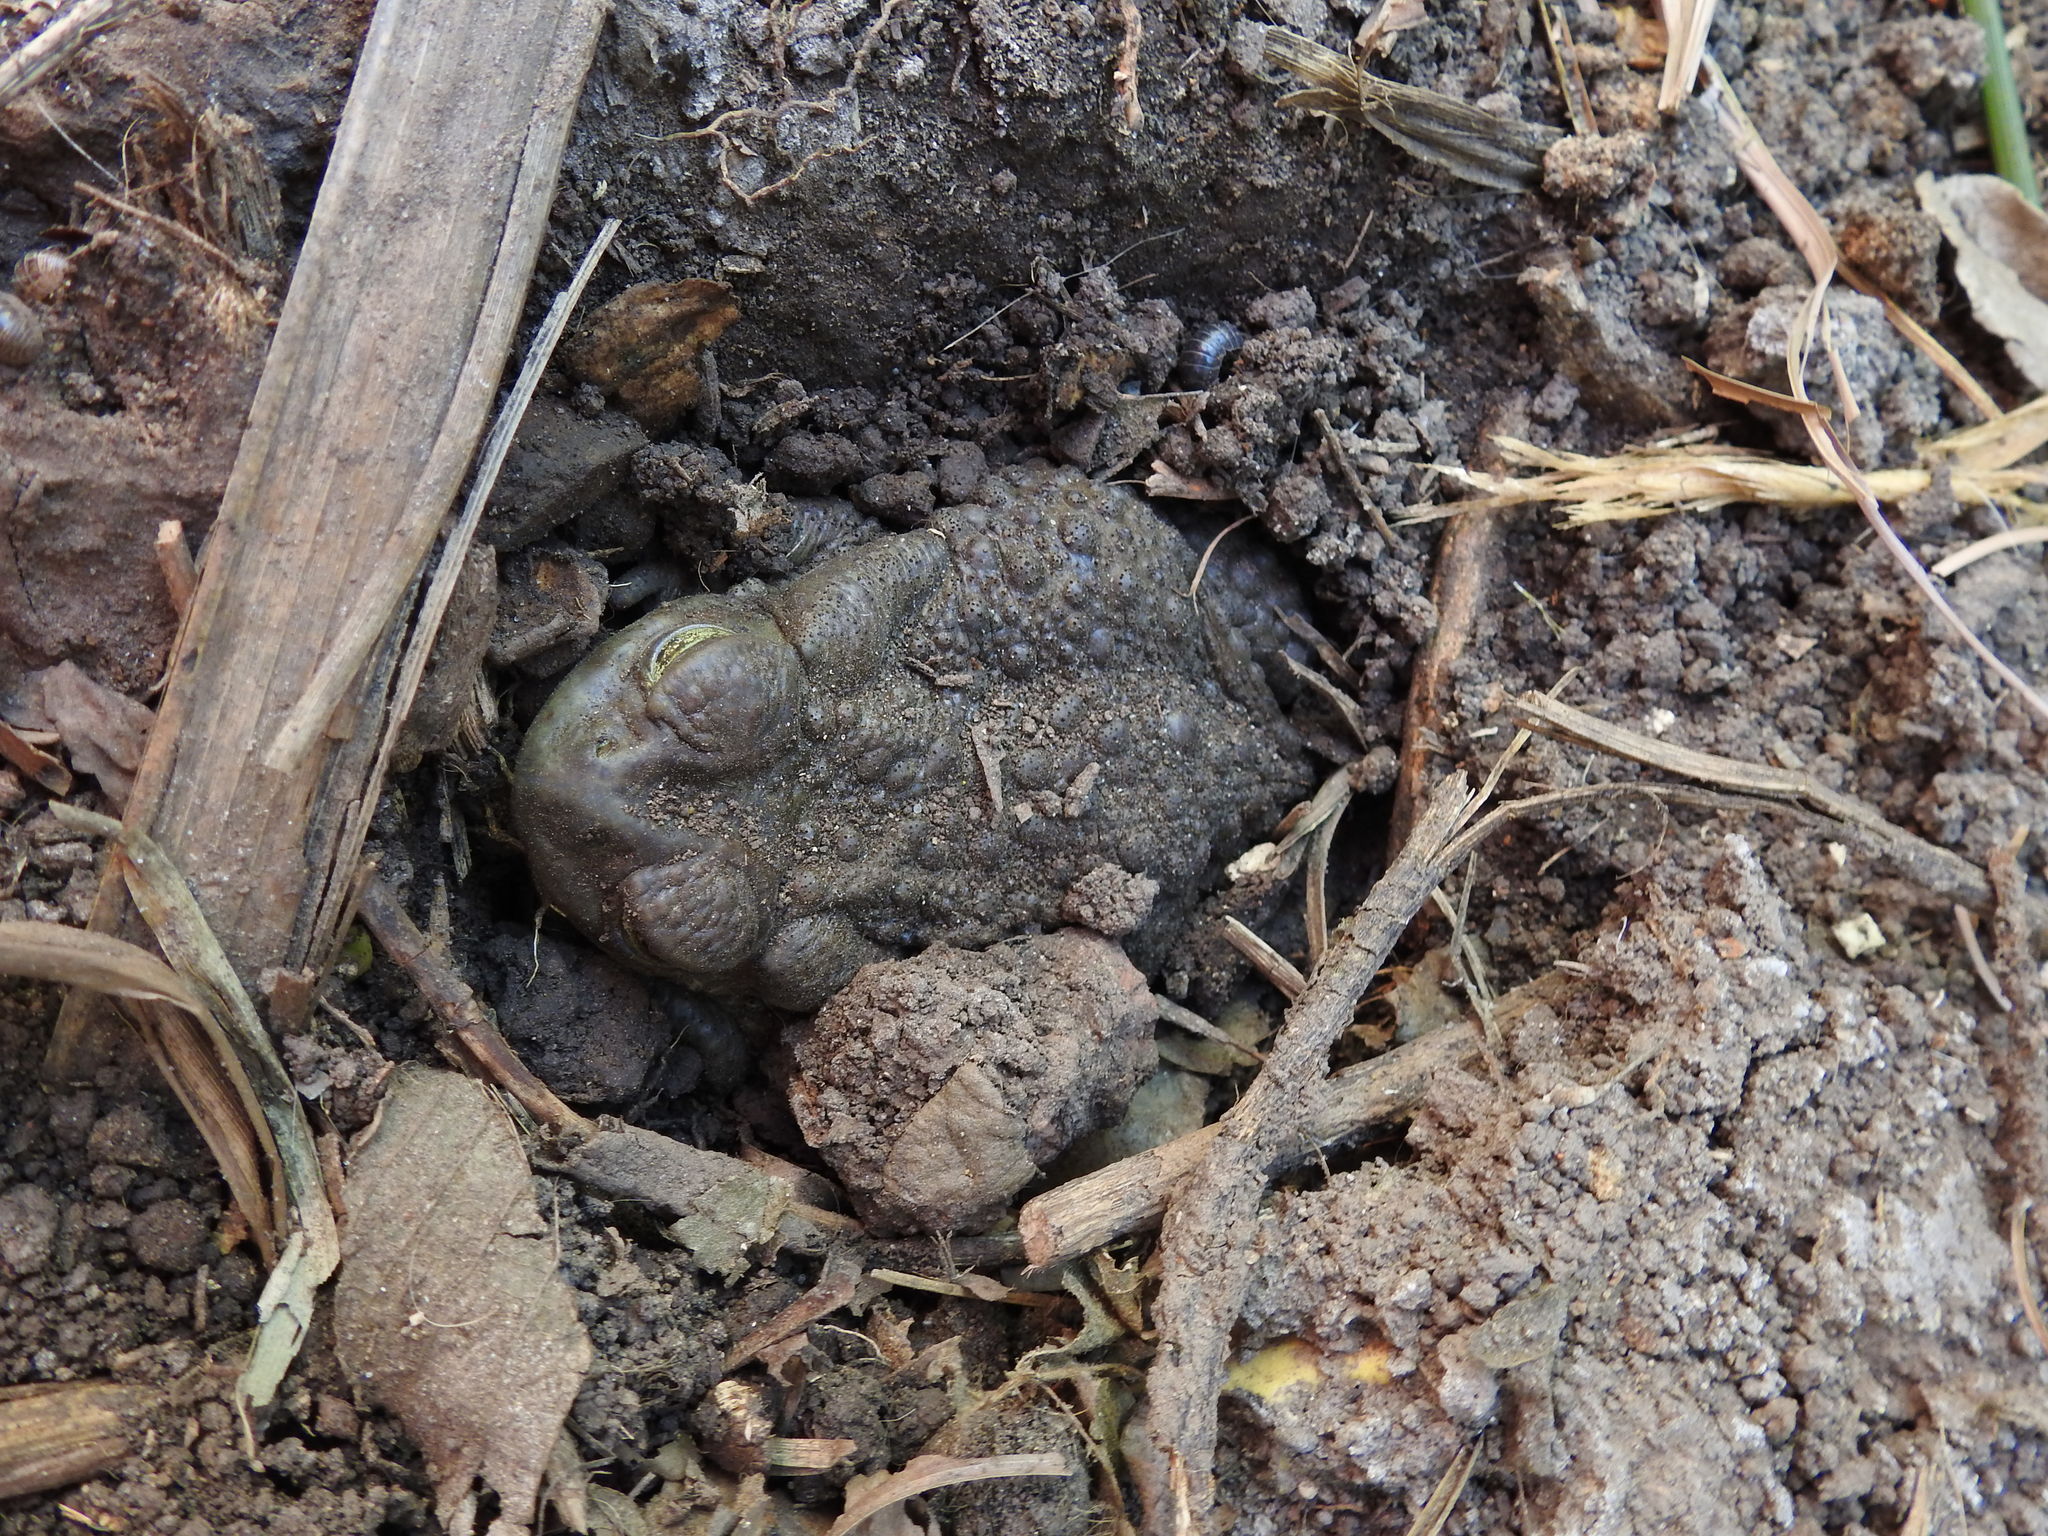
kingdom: Animalia
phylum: Chordata
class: Amphibia
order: Anura
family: Bufonidae
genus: Rhinella
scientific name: Rhinella arenarum
